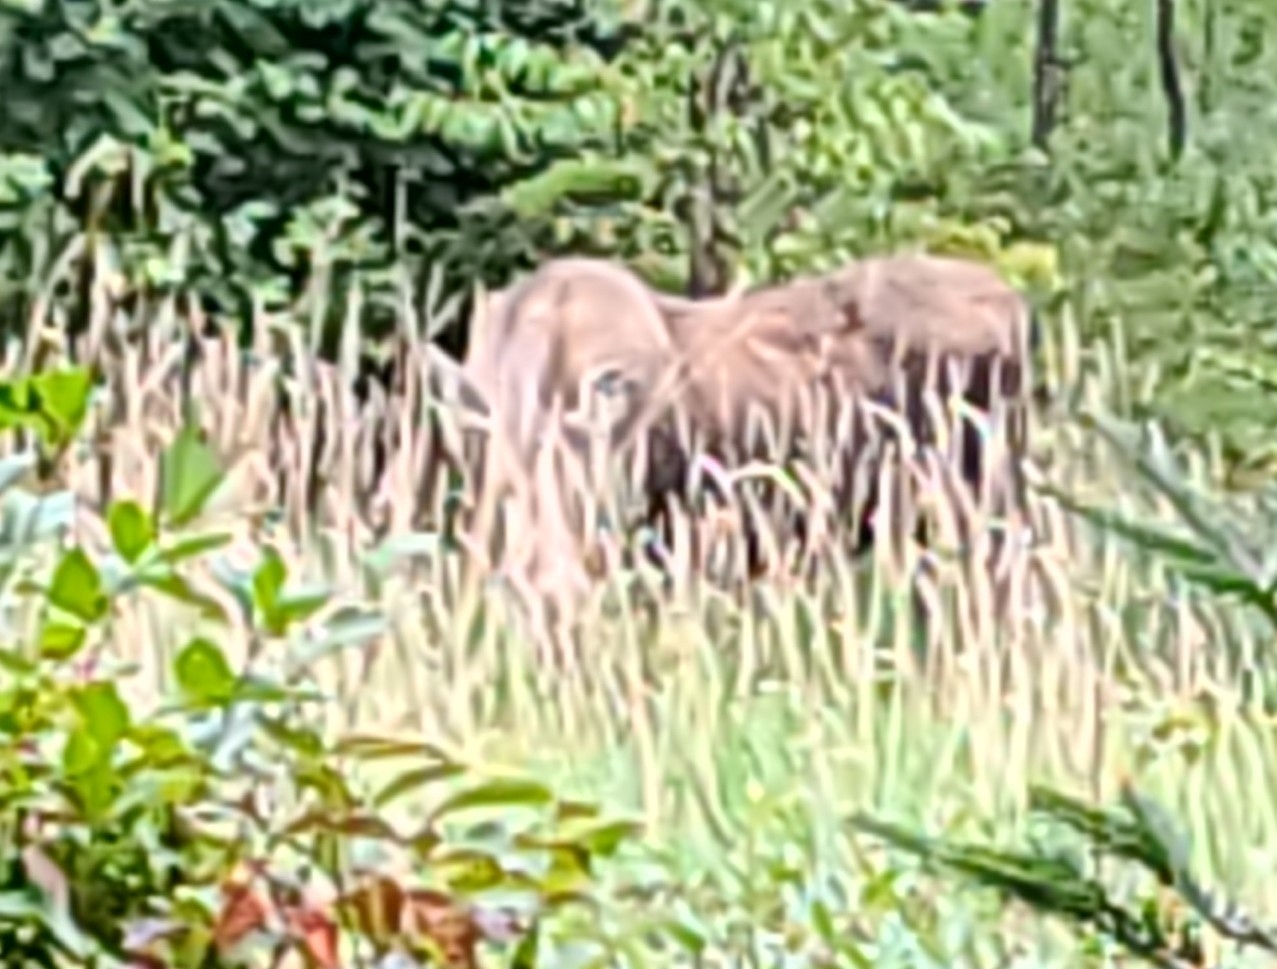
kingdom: Animalia
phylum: Chordata
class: Mammalia
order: Artiodactyla
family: Cervidae
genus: Alces
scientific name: Alces alces
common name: Moose
